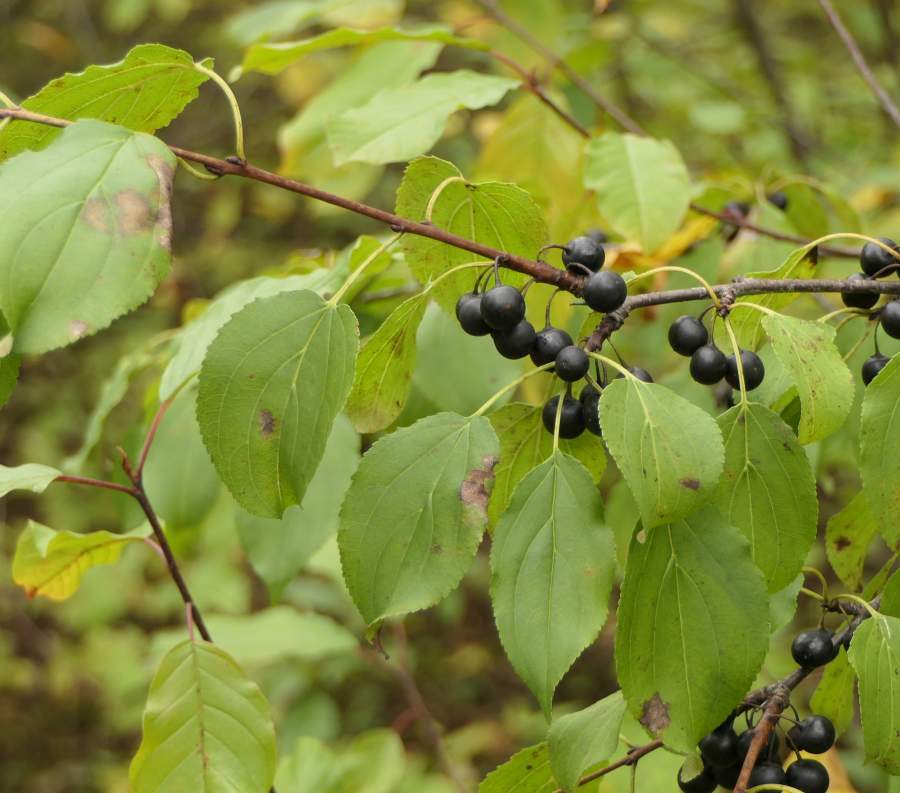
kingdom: Plantae
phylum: Tracheophyta
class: Magnoliopsida
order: Rosales
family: Rhamnaceae
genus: Rhamnus
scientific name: Rhamnus cathartica
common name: Common buckthorn
